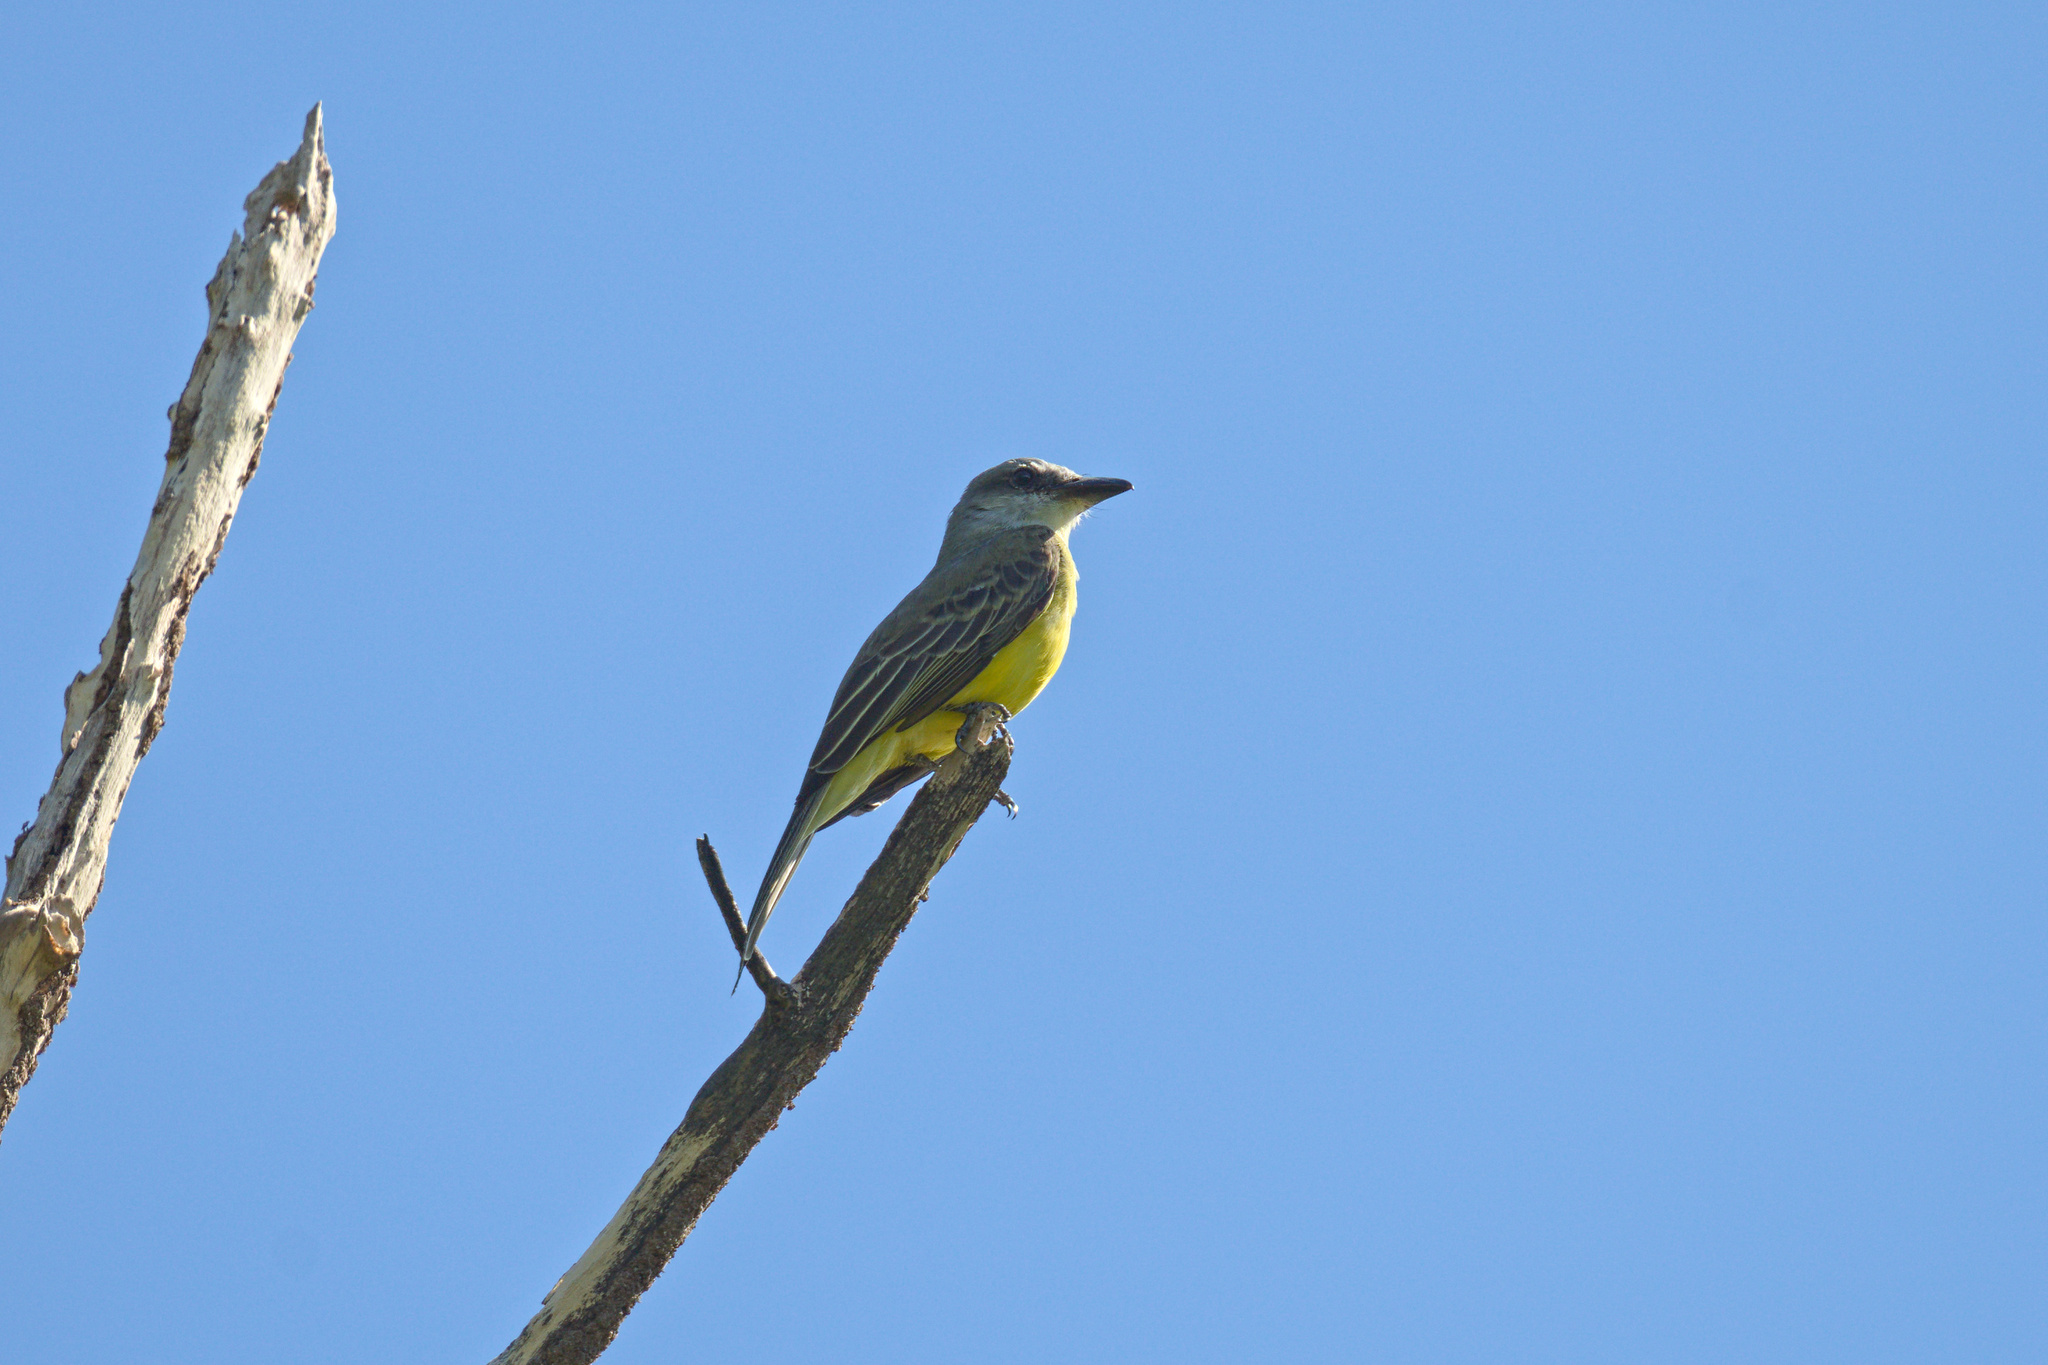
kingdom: Animalia
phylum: Chordata
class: Aves
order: Passeriformes
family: Tyrannidae
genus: Tyrannus
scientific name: Tyrannus melancholicus
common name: Tropical kingbird
